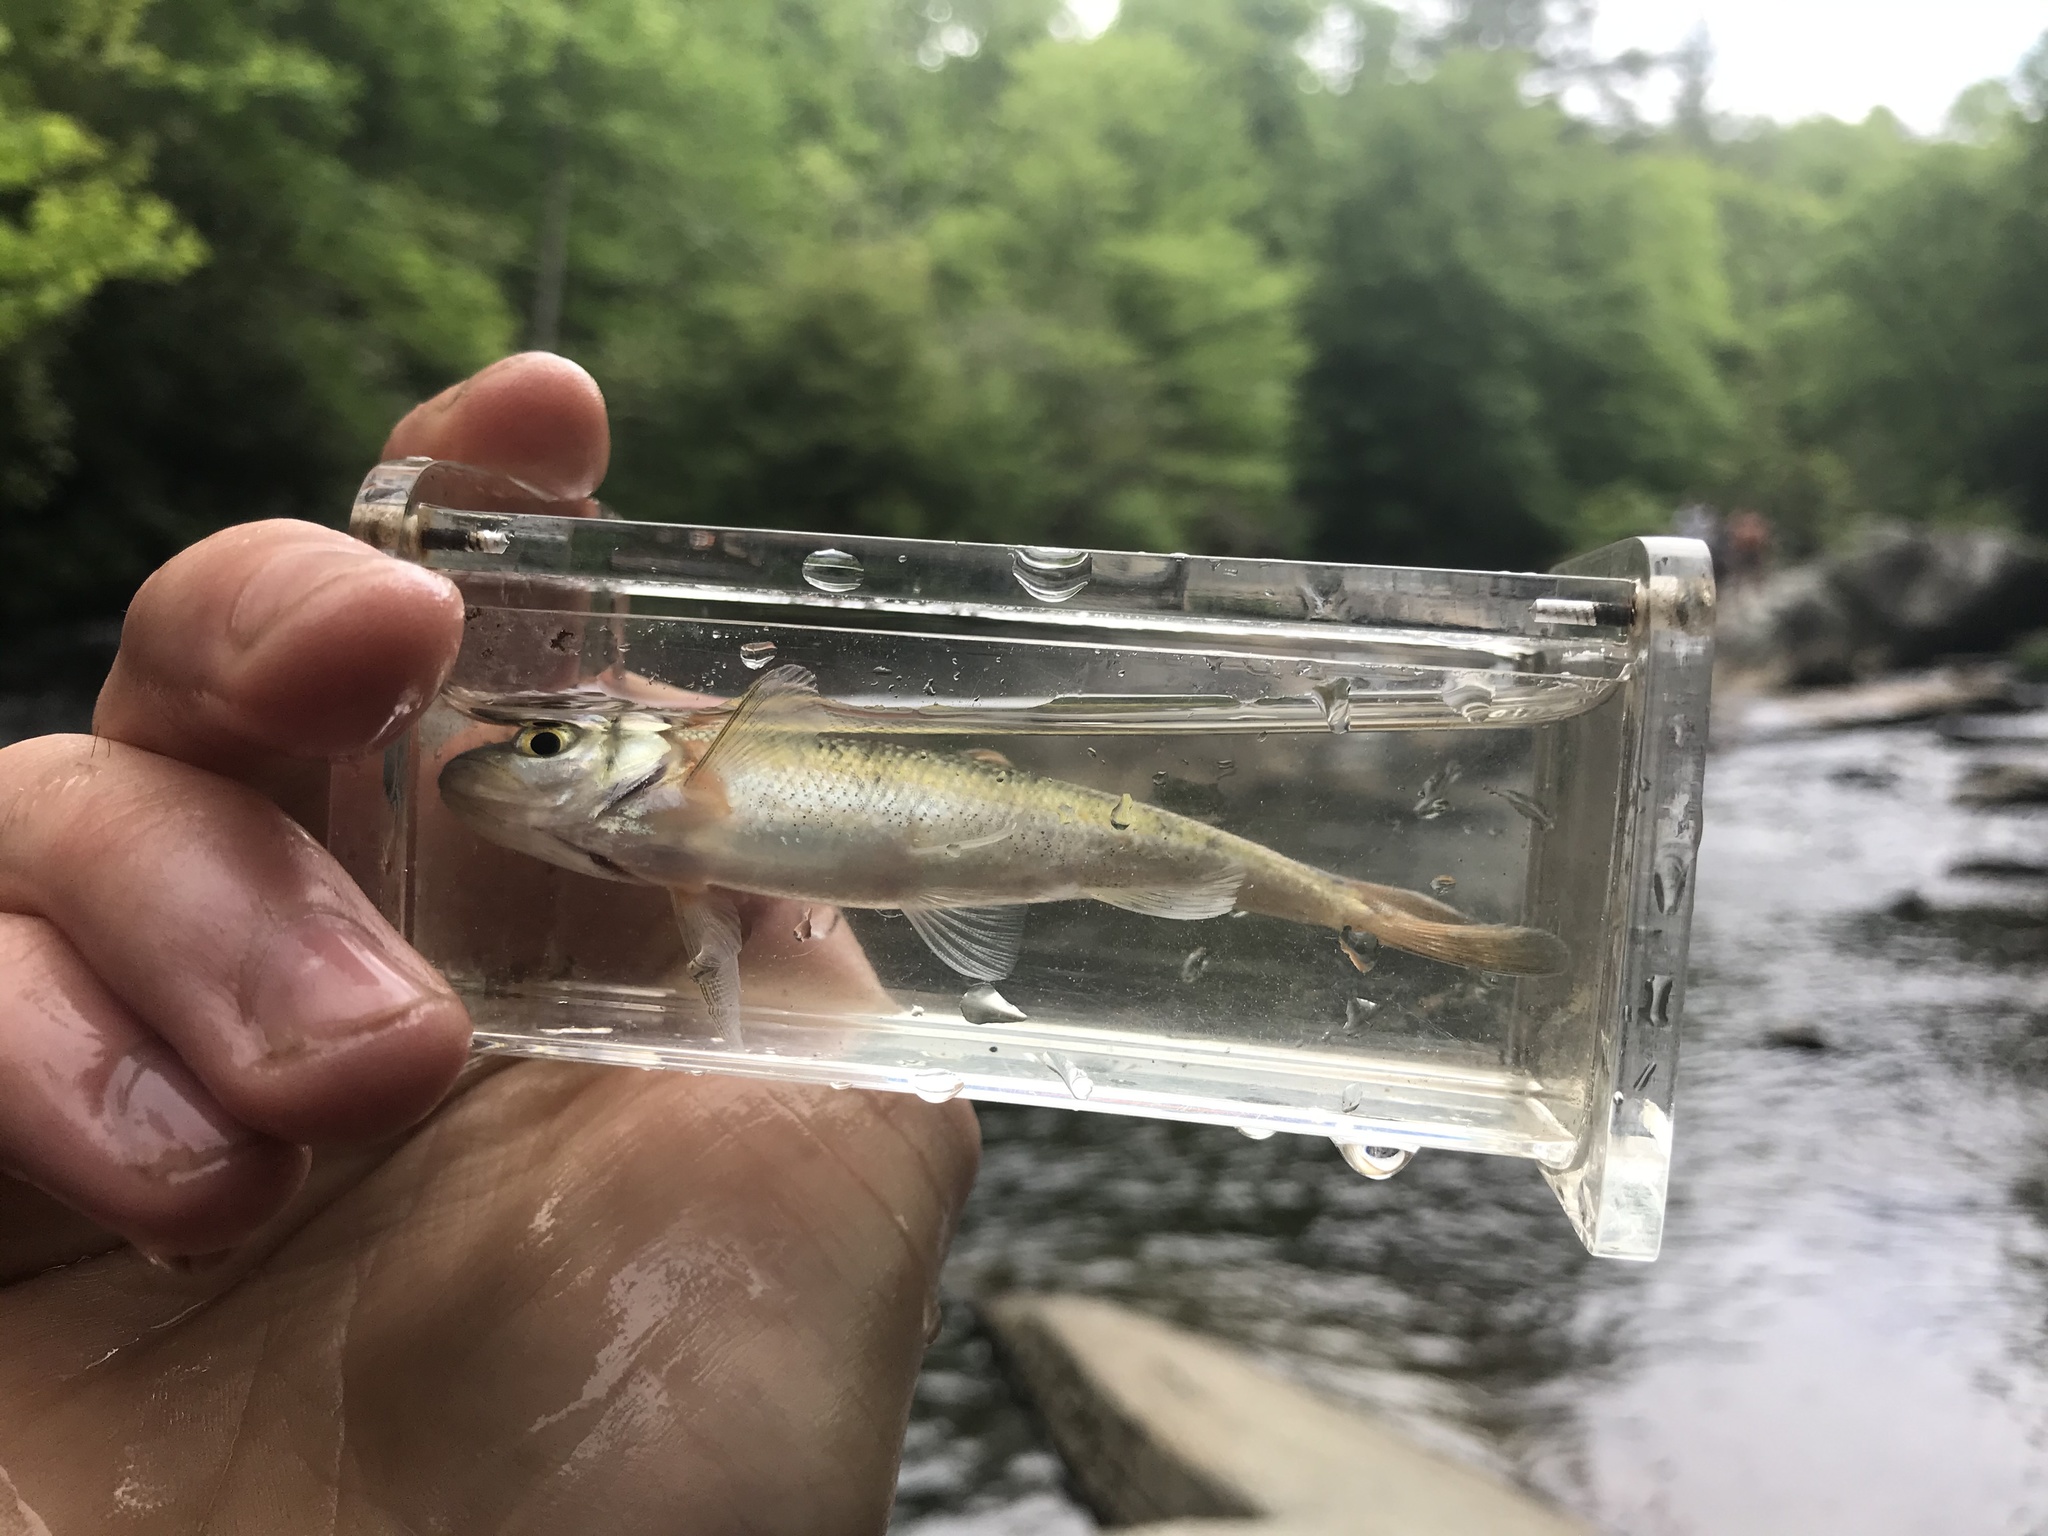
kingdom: Animalia
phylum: Chordata
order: Cypriniformes
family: Cyprinidae
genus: Clinostomus
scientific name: Clinostomus funduloides
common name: Rosyside dace
